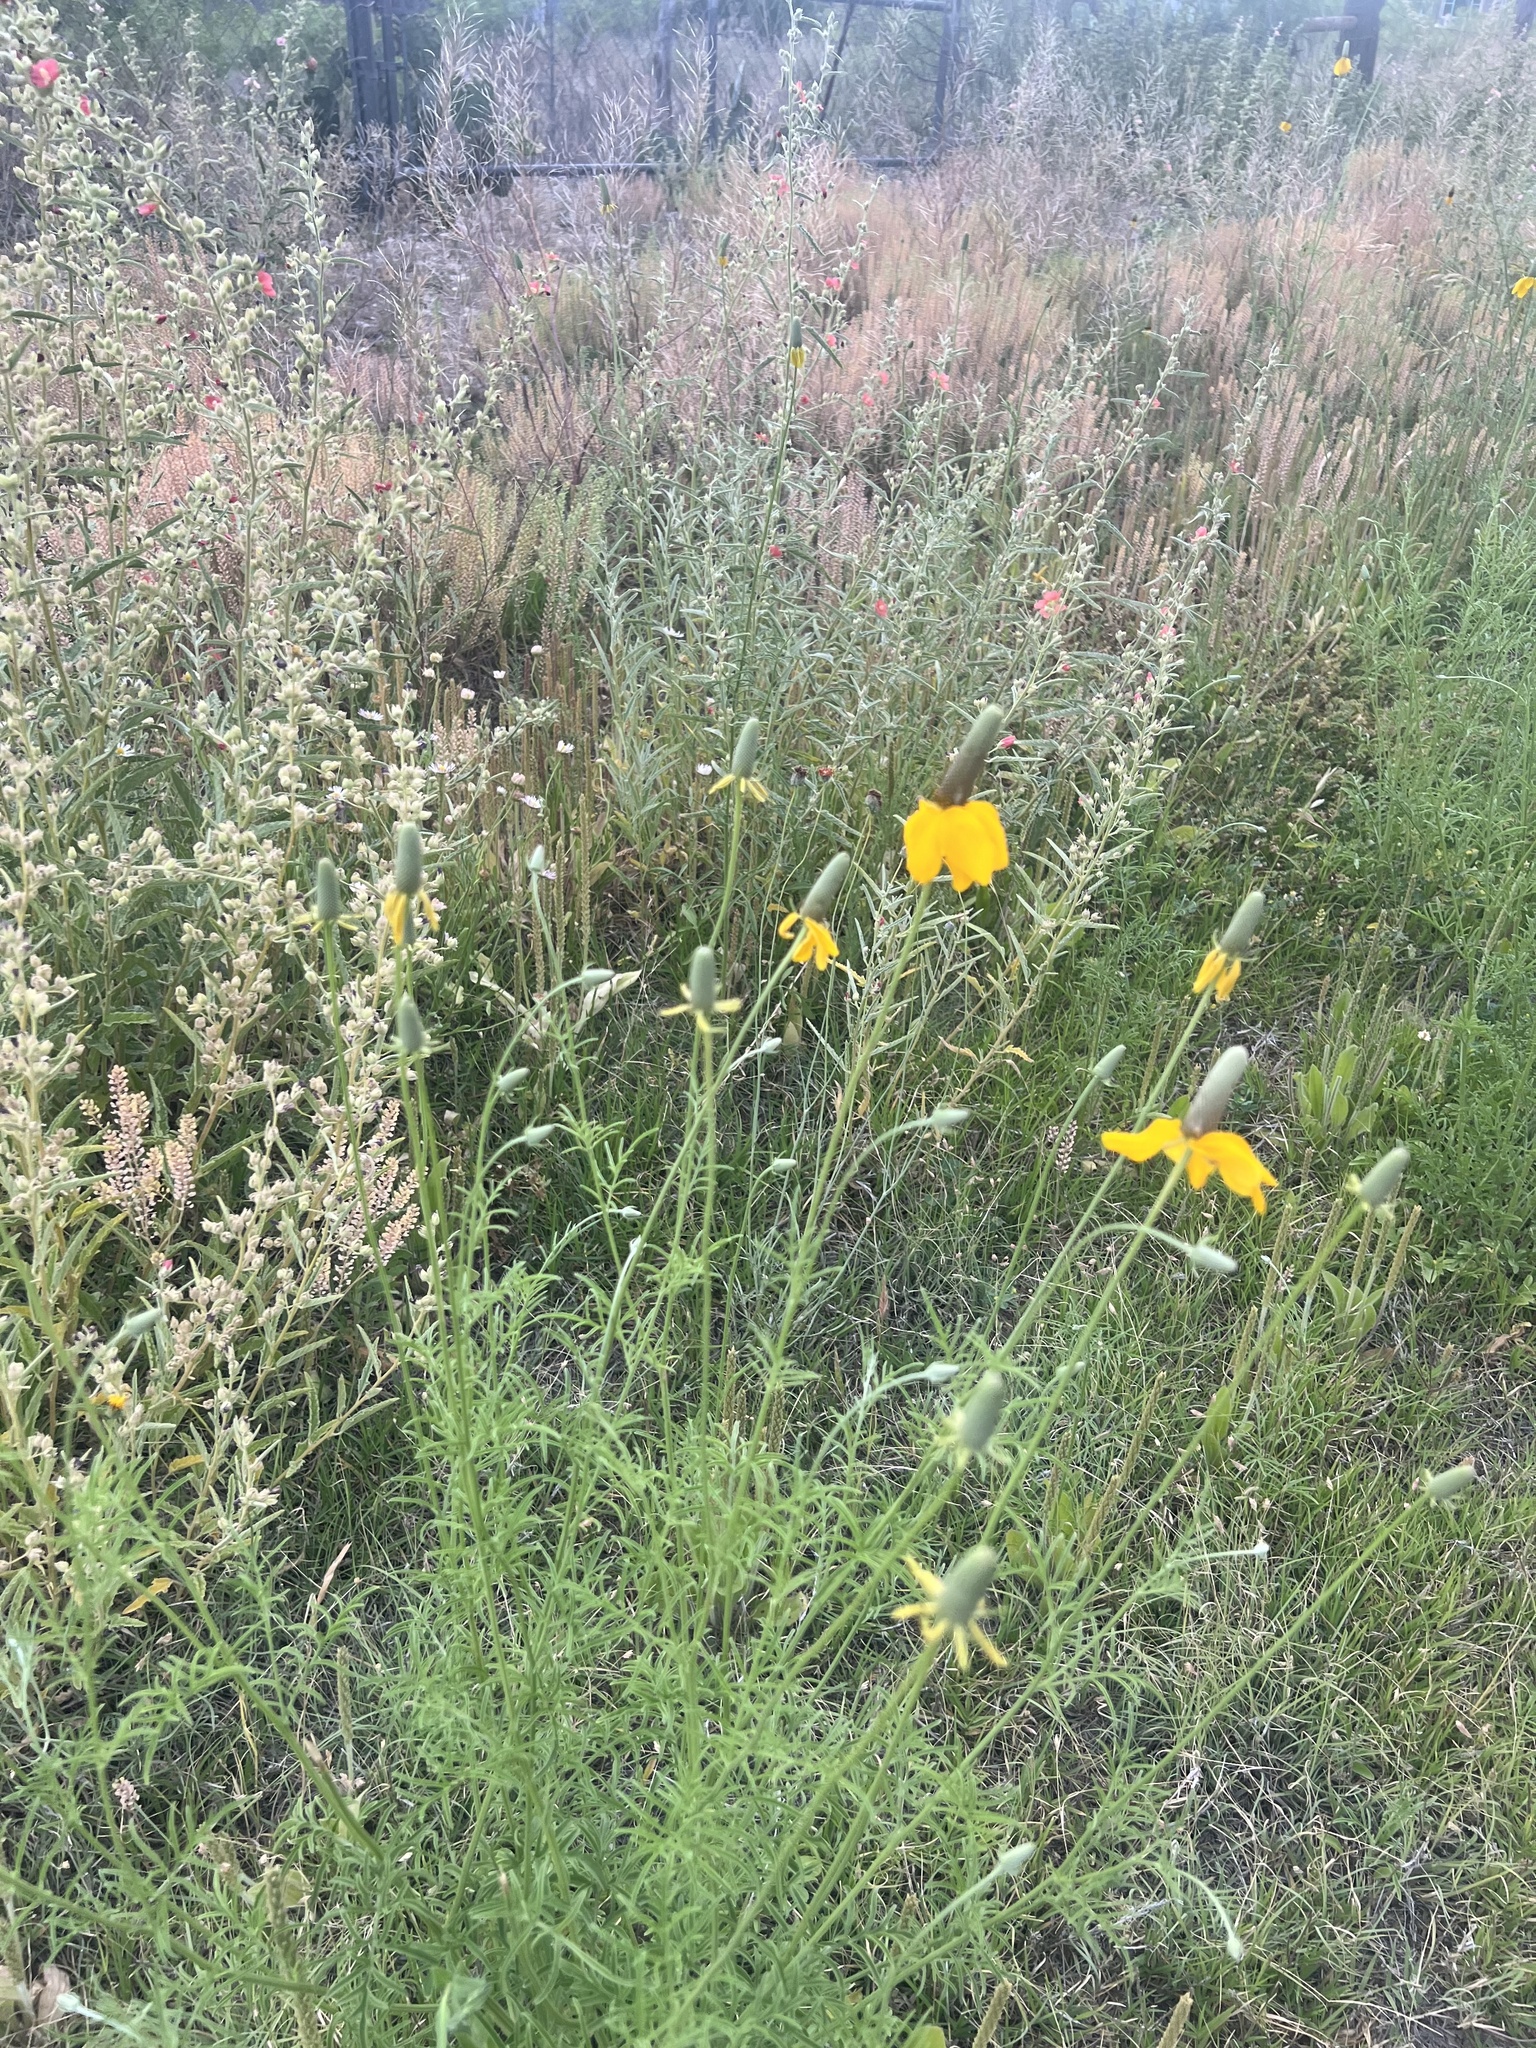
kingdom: Plantae
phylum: Tracheophyta
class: Magnoliopsida
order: Asterales
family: Asteraceae
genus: Ratibida
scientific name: Ratibida columnifera
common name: Prairie coneflower
